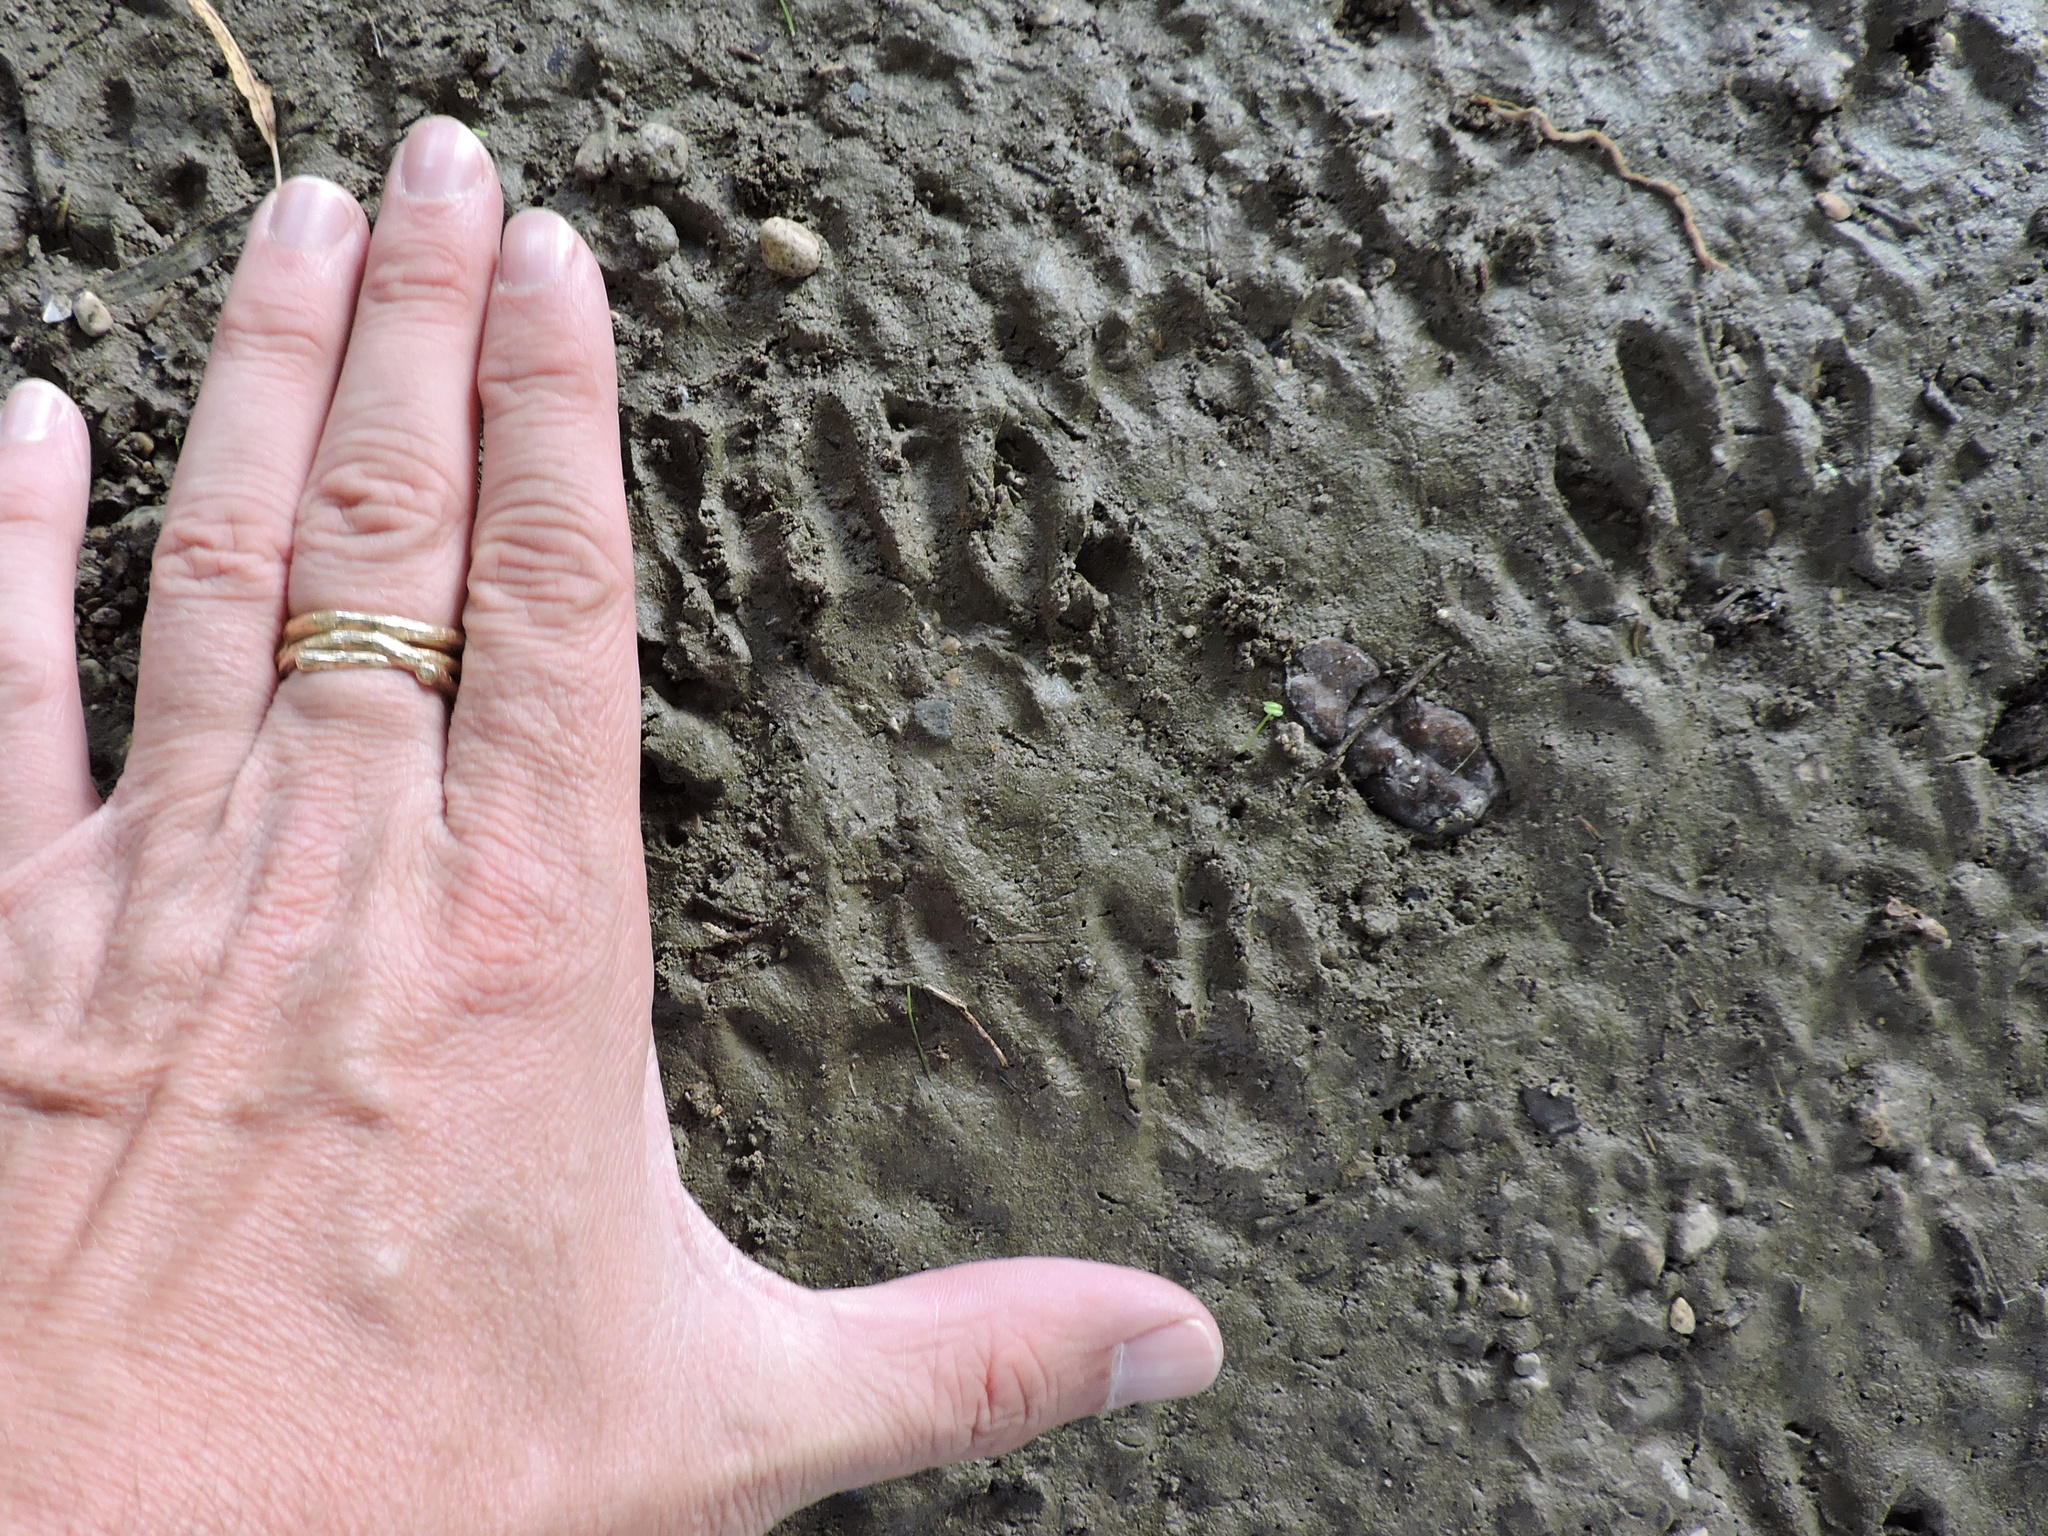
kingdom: Animalia
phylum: Chordata
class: Mammalia
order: Carnivora
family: Procyonidae
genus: Procyon
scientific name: Procyon lotor
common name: Raccoon
